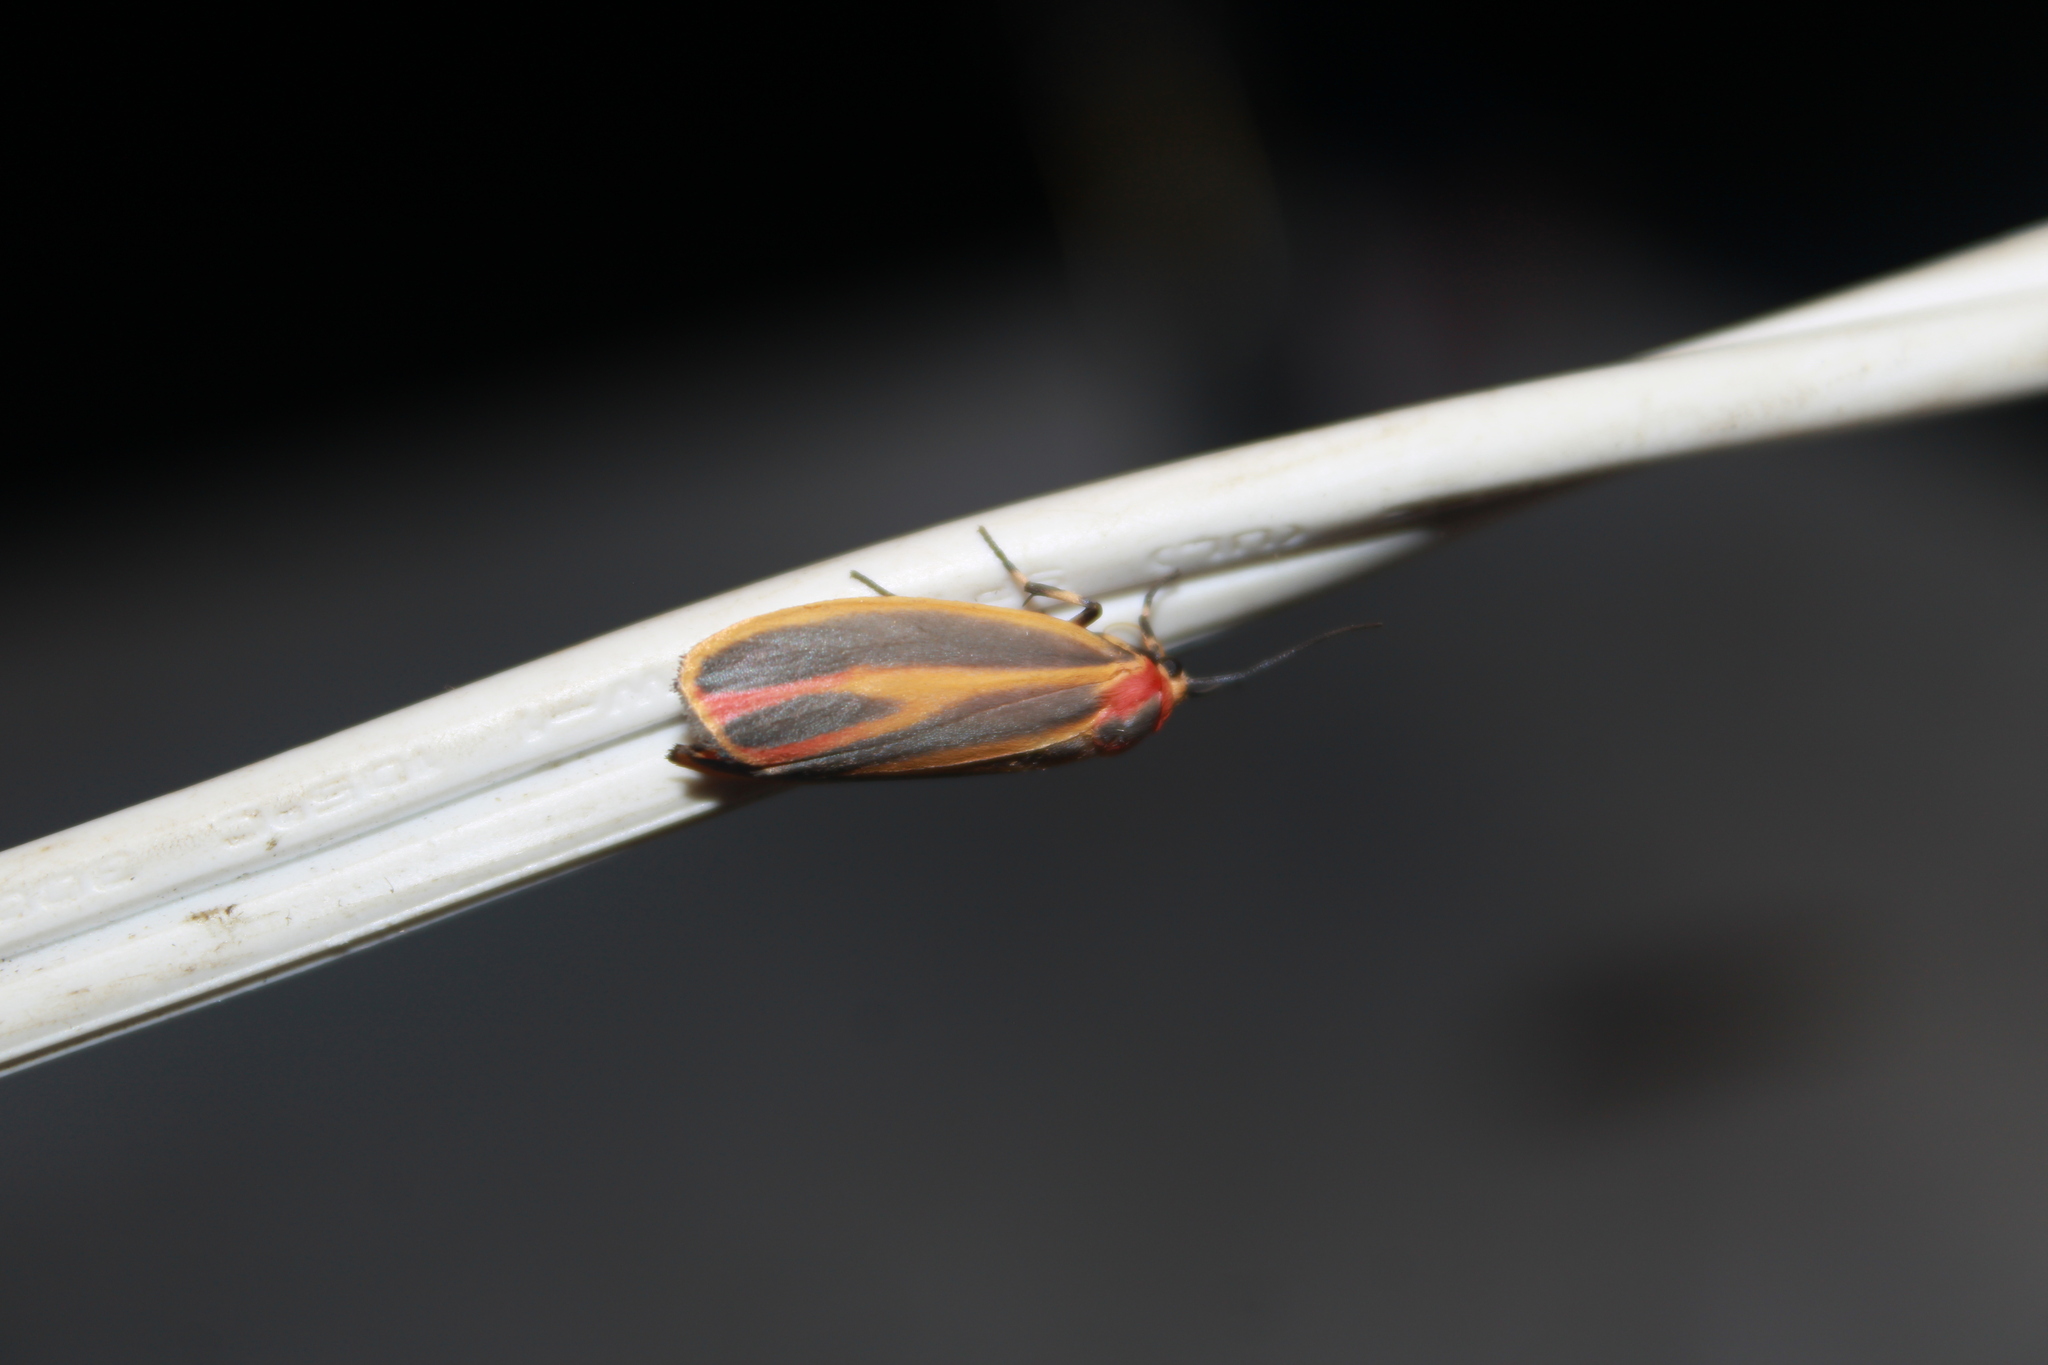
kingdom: Animalia
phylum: Arthropoda
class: Insecta
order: Lepidoptera
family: Erebidae
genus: Hypoprepia
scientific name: Hypoprepia fucosa
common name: Painted lichen moth
